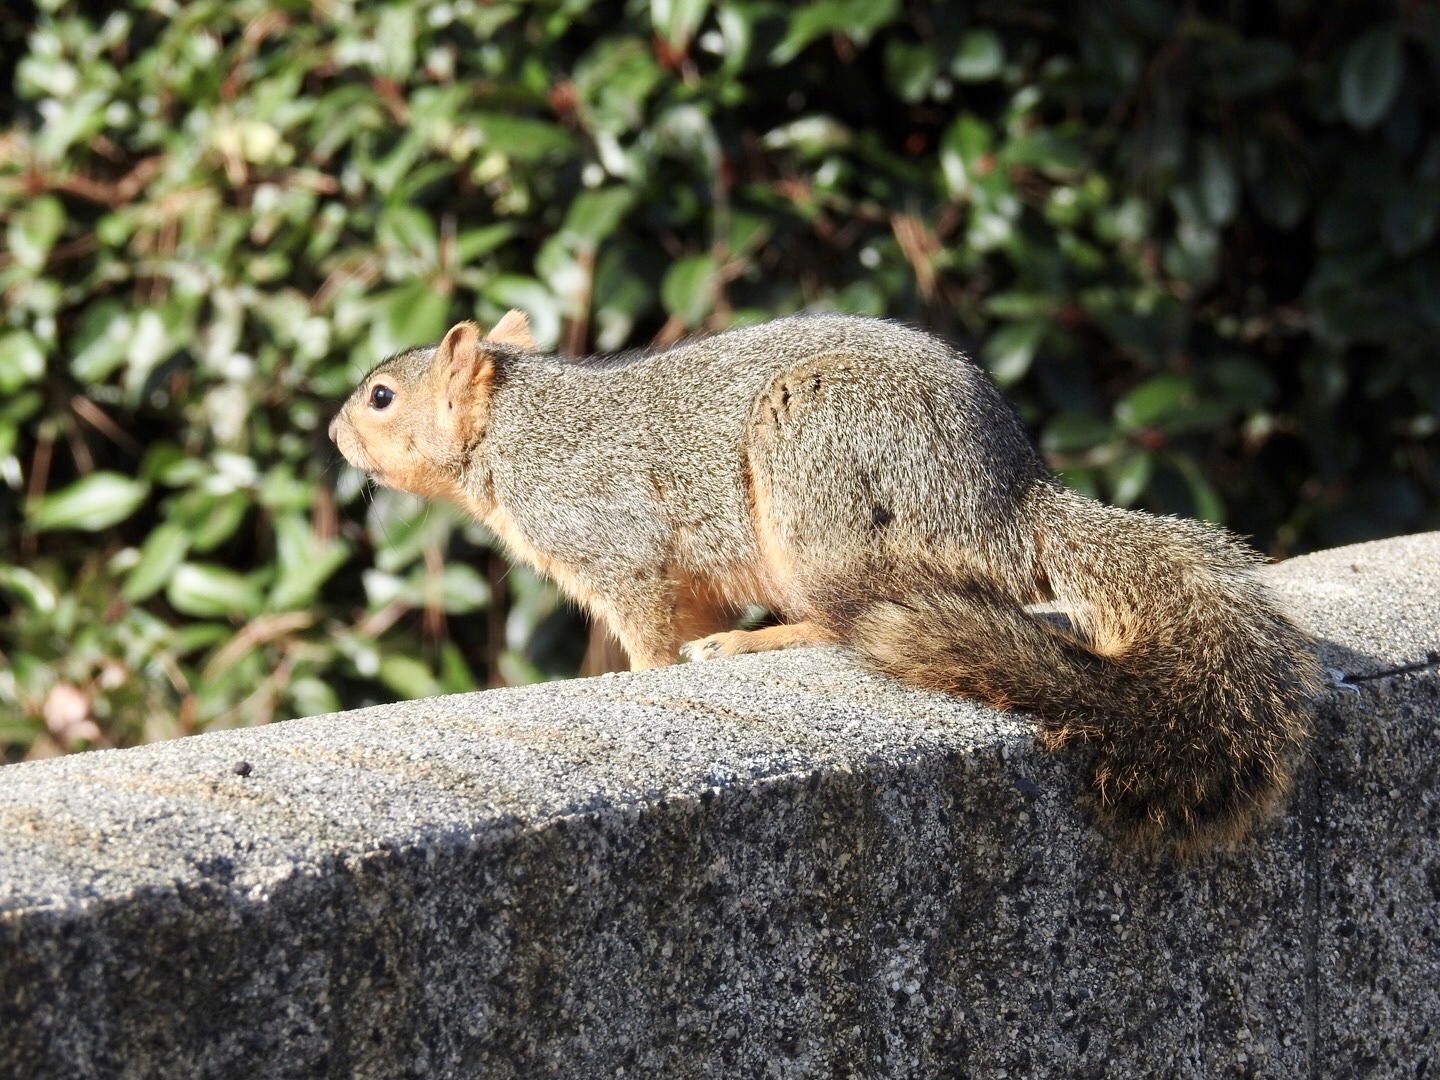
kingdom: Animalia
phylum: Chordata
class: Mammalia
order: Rodentia
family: Sciuridae
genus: Sciurus
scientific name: Sciurus niger
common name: Fox squirrel
